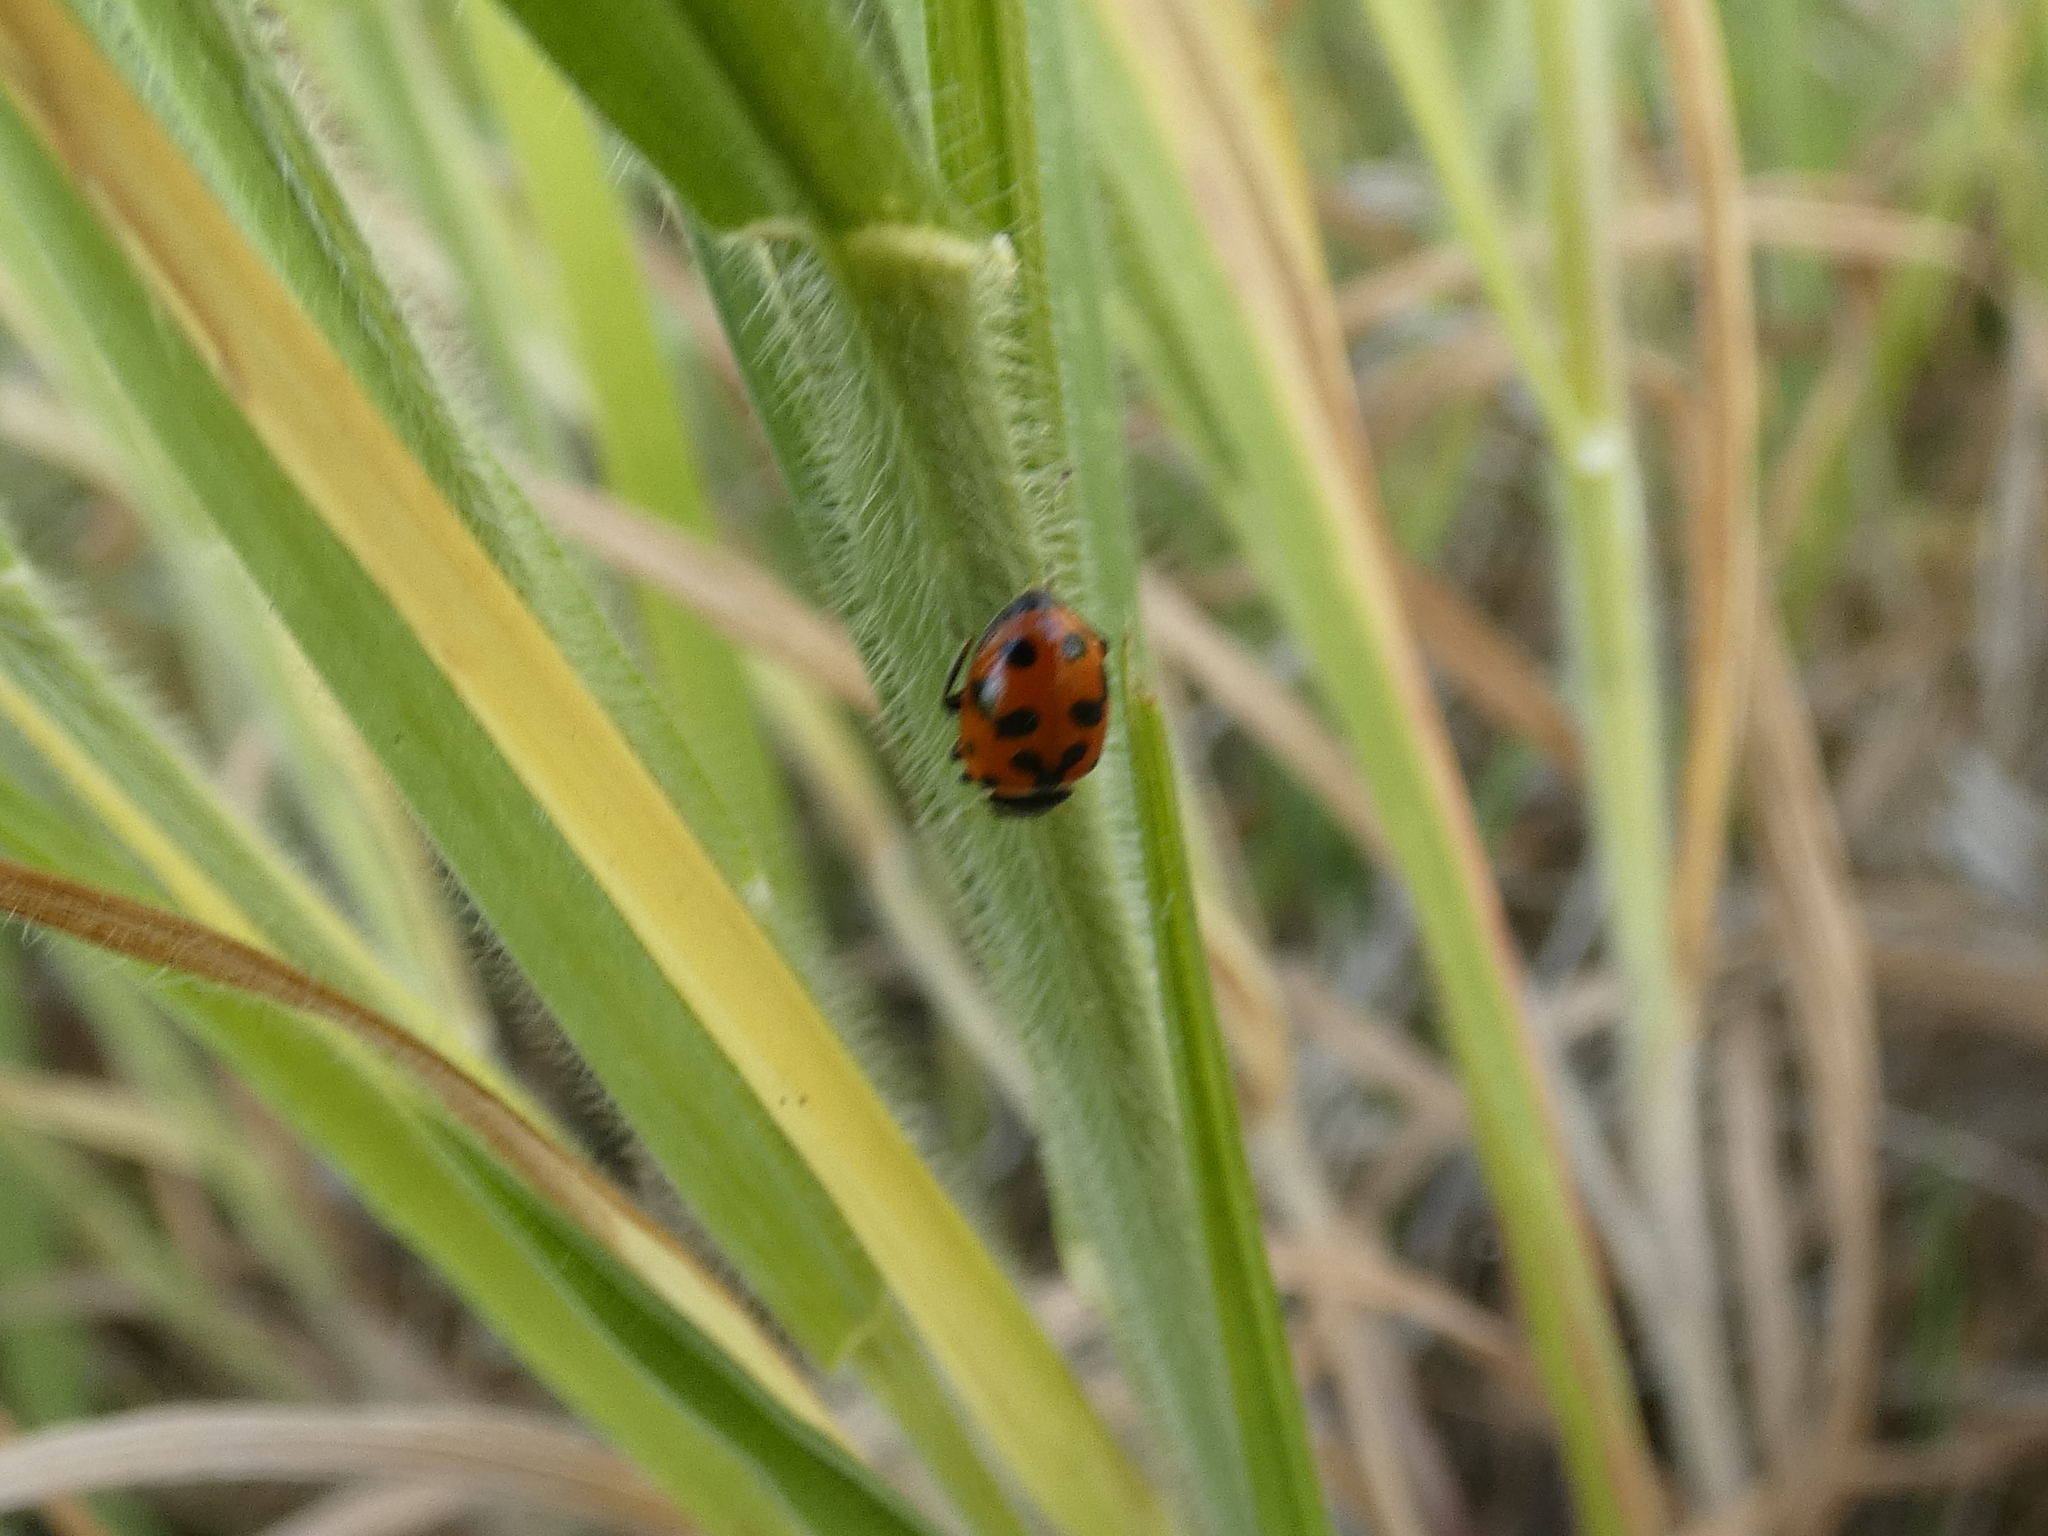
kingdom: Animalia
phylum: Arthropoda
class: Insecta
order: Coleoptera
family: Coccinellidae
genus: Hippodamia
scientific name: Hippodamia variegata
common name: Ladybird beetle
